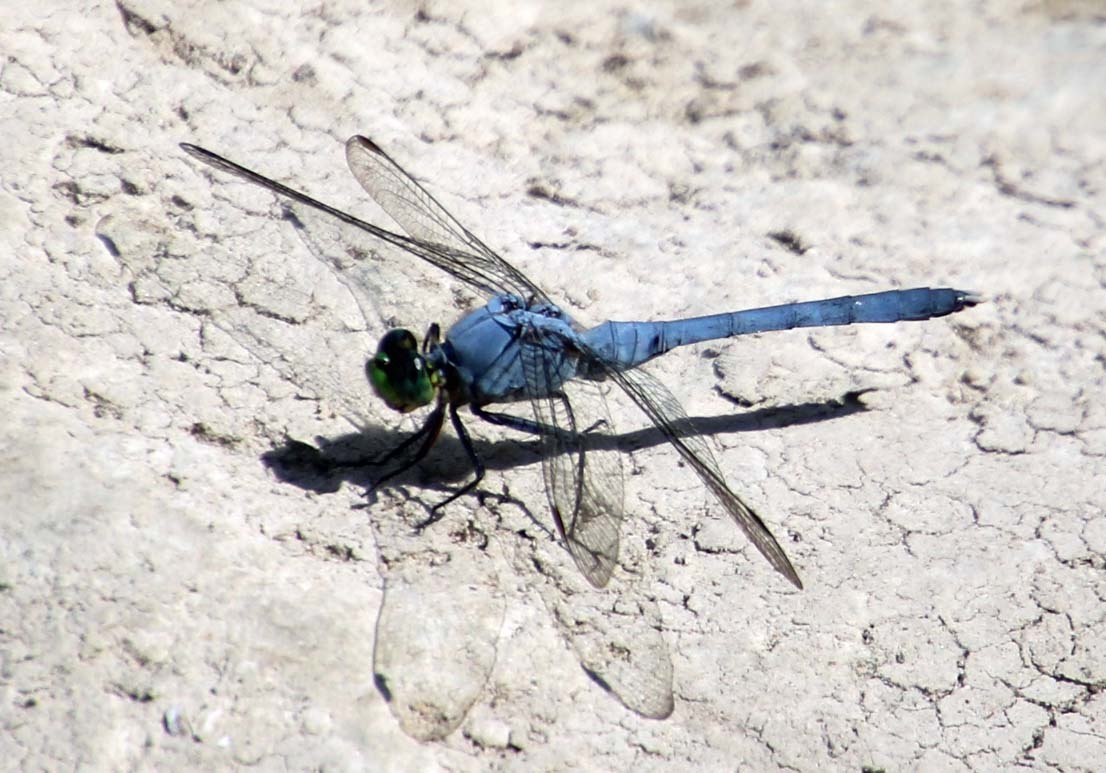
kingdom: Animalia
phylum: Arthropoda
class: Insecta
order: Odonata
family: Libellulidae
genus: Erythemis
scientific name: Erythemis simplicicollis
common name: Eastern pondhawk
